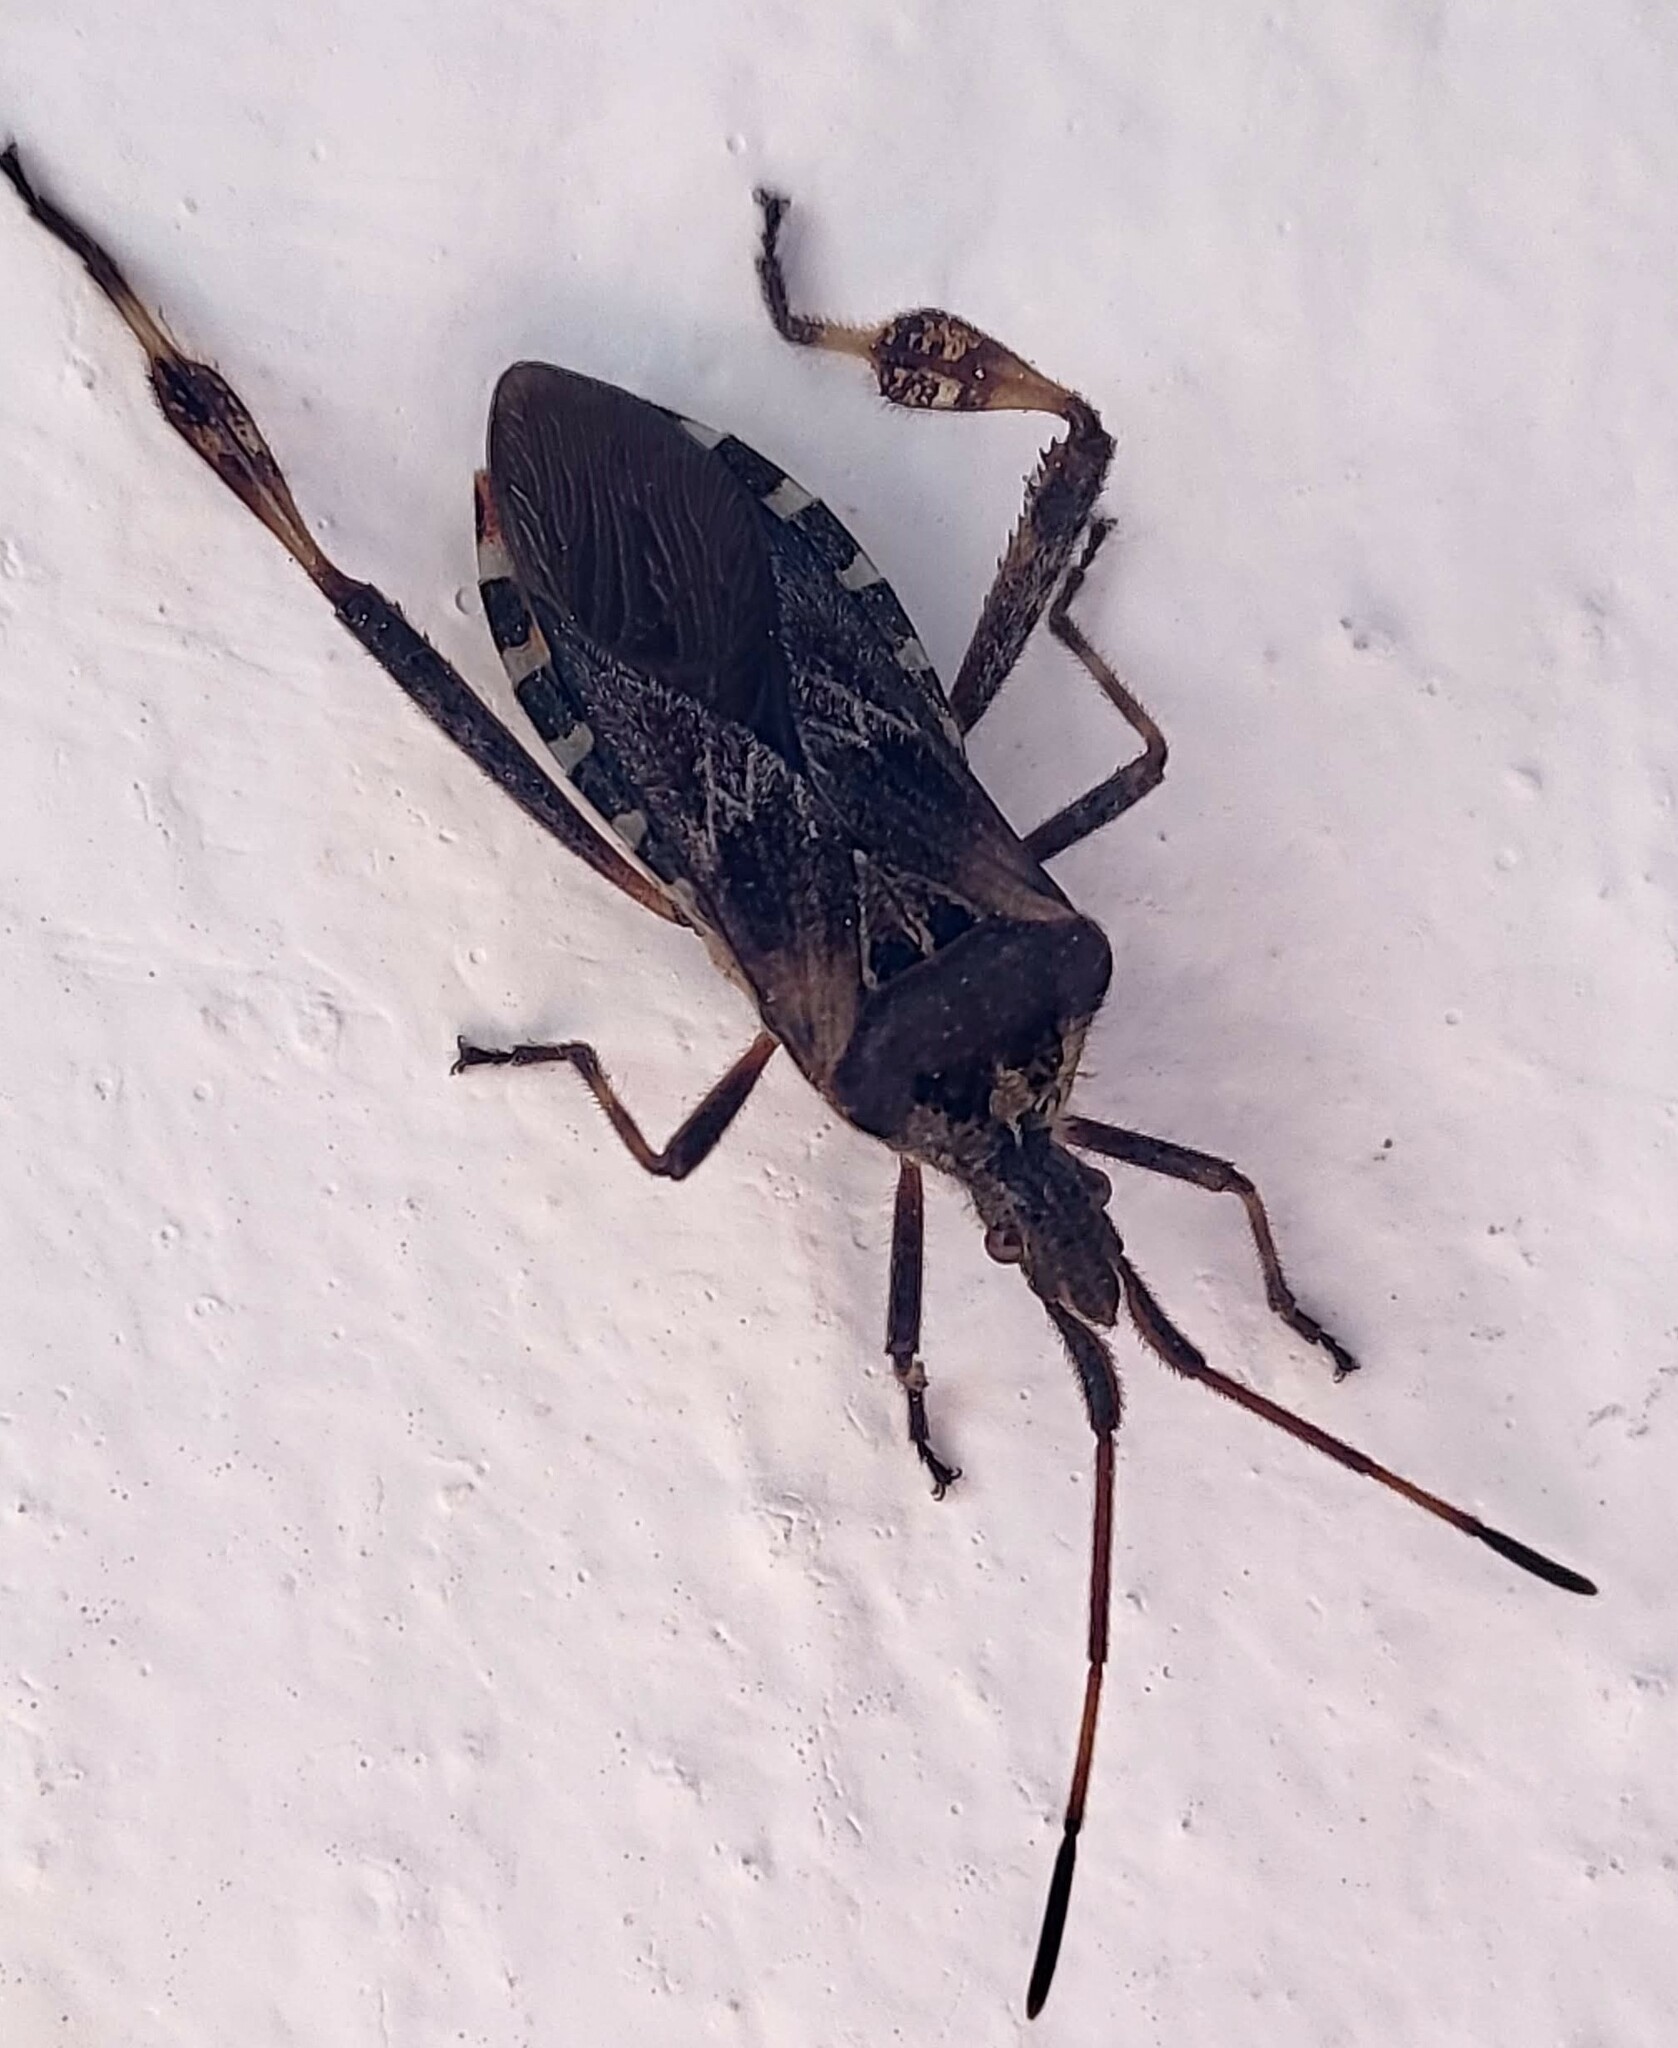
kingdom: Animalia
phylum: Arthropoda
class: Insecta
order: Hemiptera
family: Coreidae
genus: Leptoglossus
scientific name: Leptoglossus occidentalis
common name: Western conifer-seed bug
